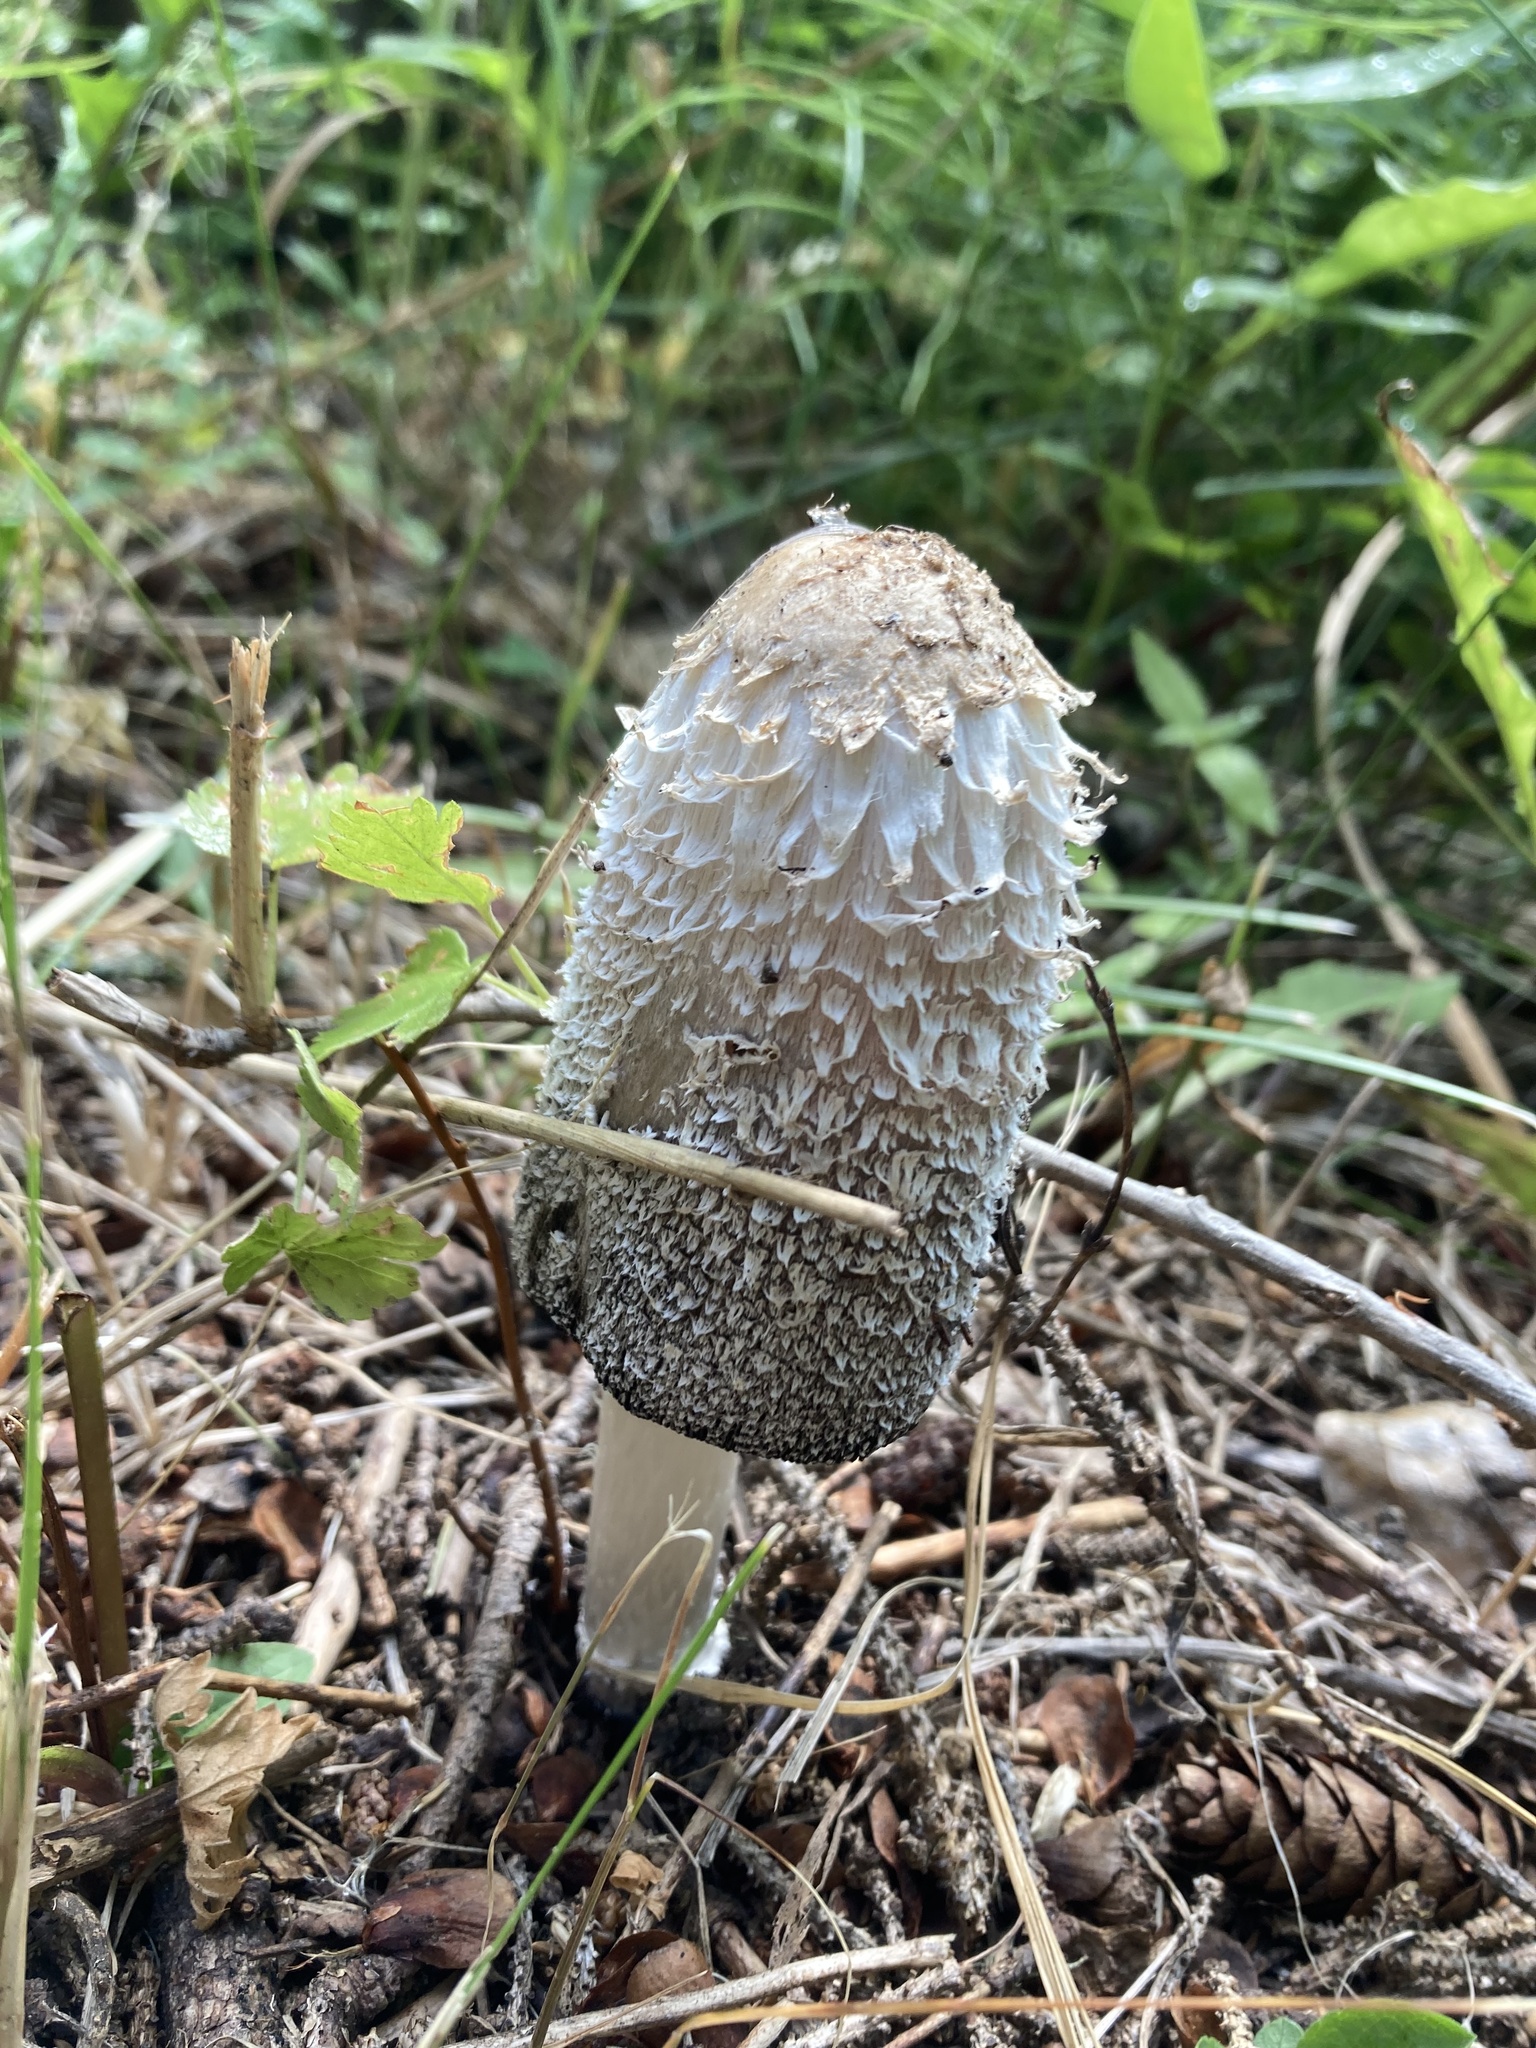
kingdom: Fungi
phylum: Basidiomycota
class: Agaricomycetes
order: Agaricales
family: Agaricaceae
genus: Coprinus
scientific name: Coprinus comatus
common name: Lawyer's wig
